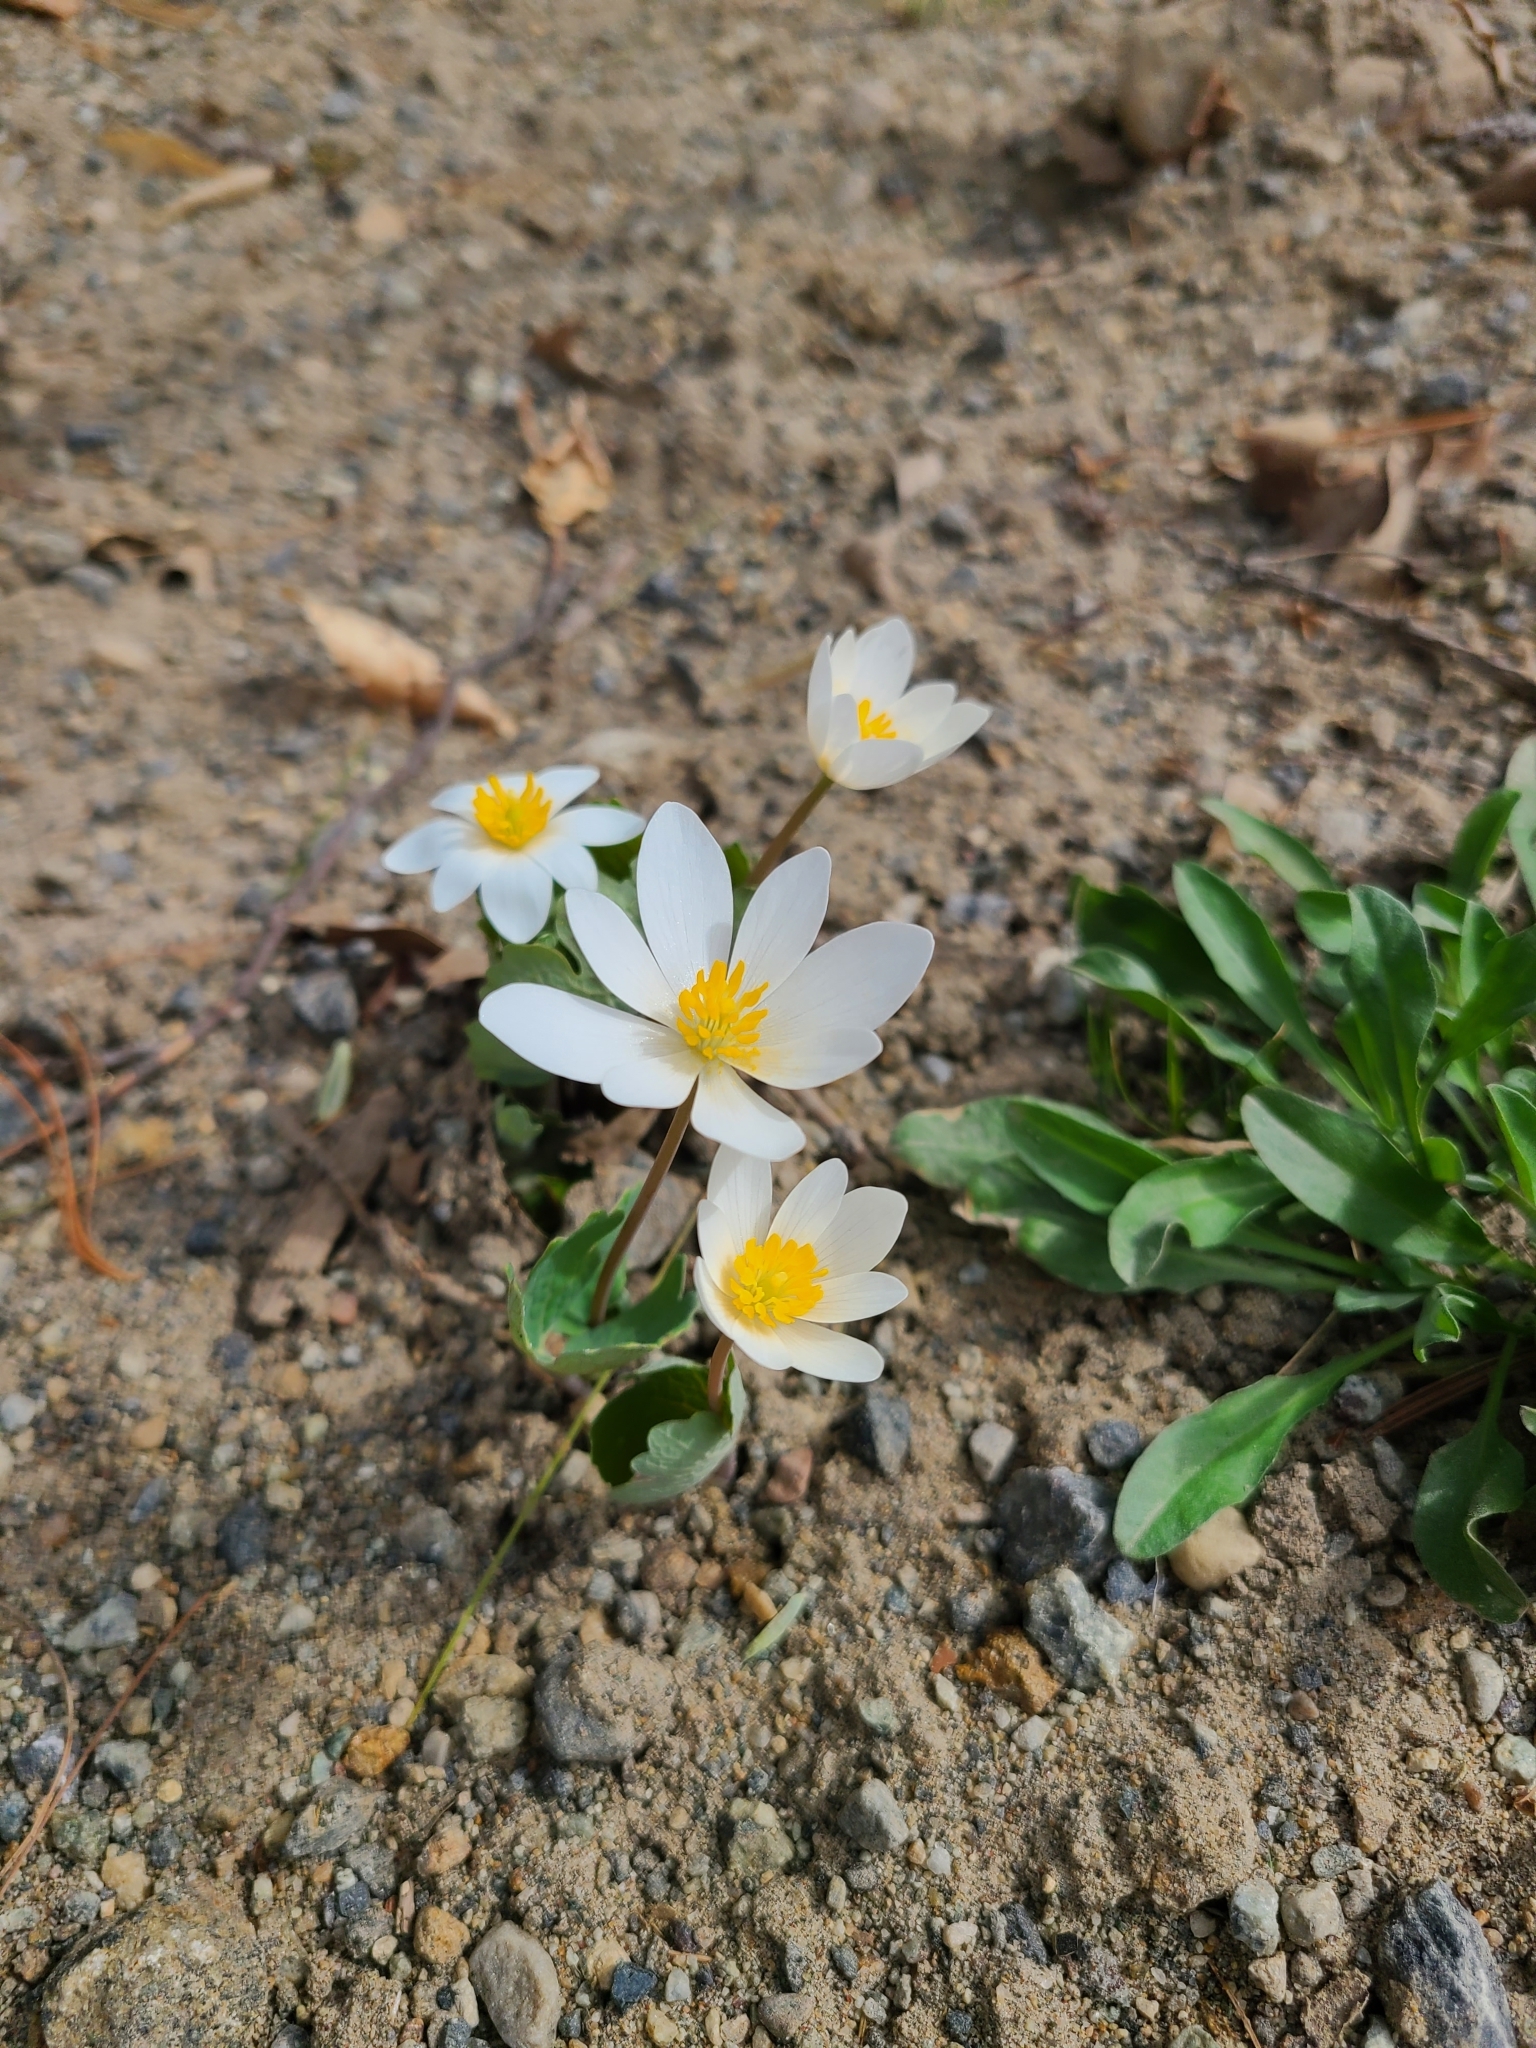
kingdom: Plantae
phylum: Tracheophyta
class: Magnoliopsida
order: Ranunculales
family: Papaveraceae
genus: Sanguinaria
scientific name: Sanguinaria canadensis
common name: Bloodroot
